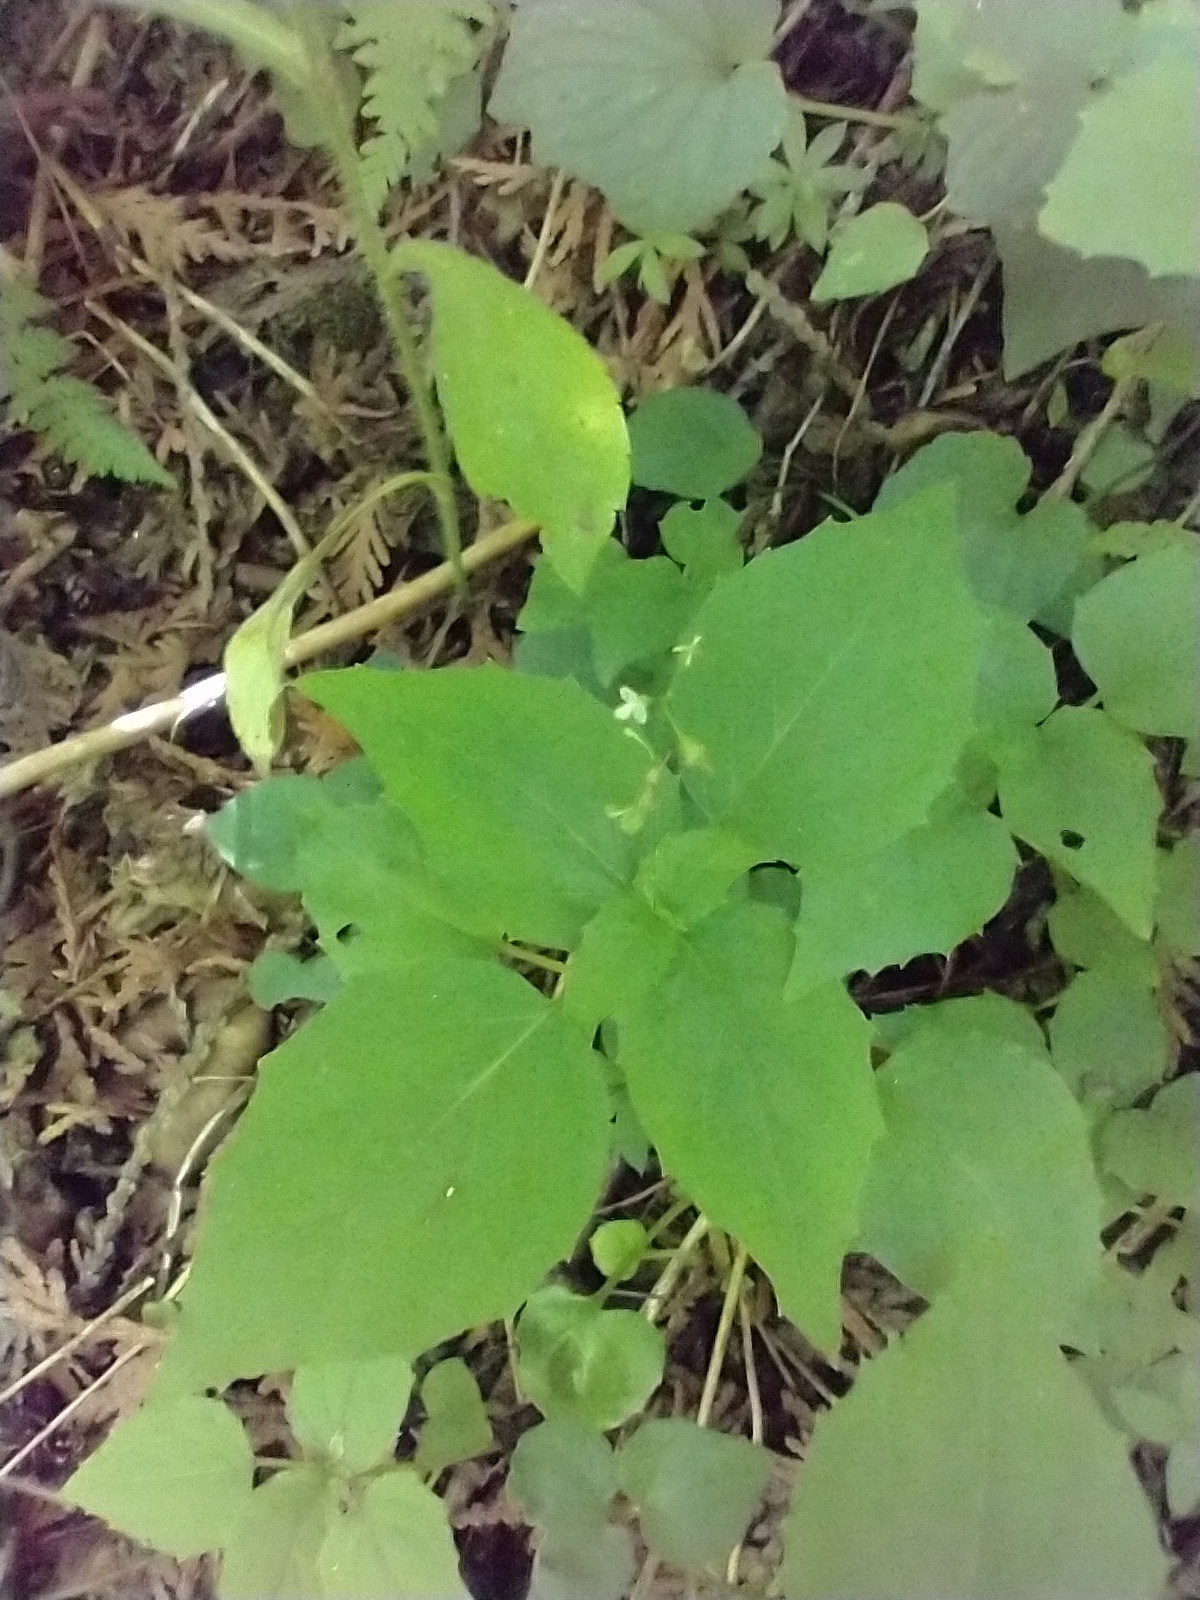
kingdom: Plantae
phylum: Tracheophyta
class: Magnoliopsida
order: Myrtales
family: Onagraceae
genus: Circaea
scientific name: Circaea alpina
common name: Alpine enchanter's-nightshade
